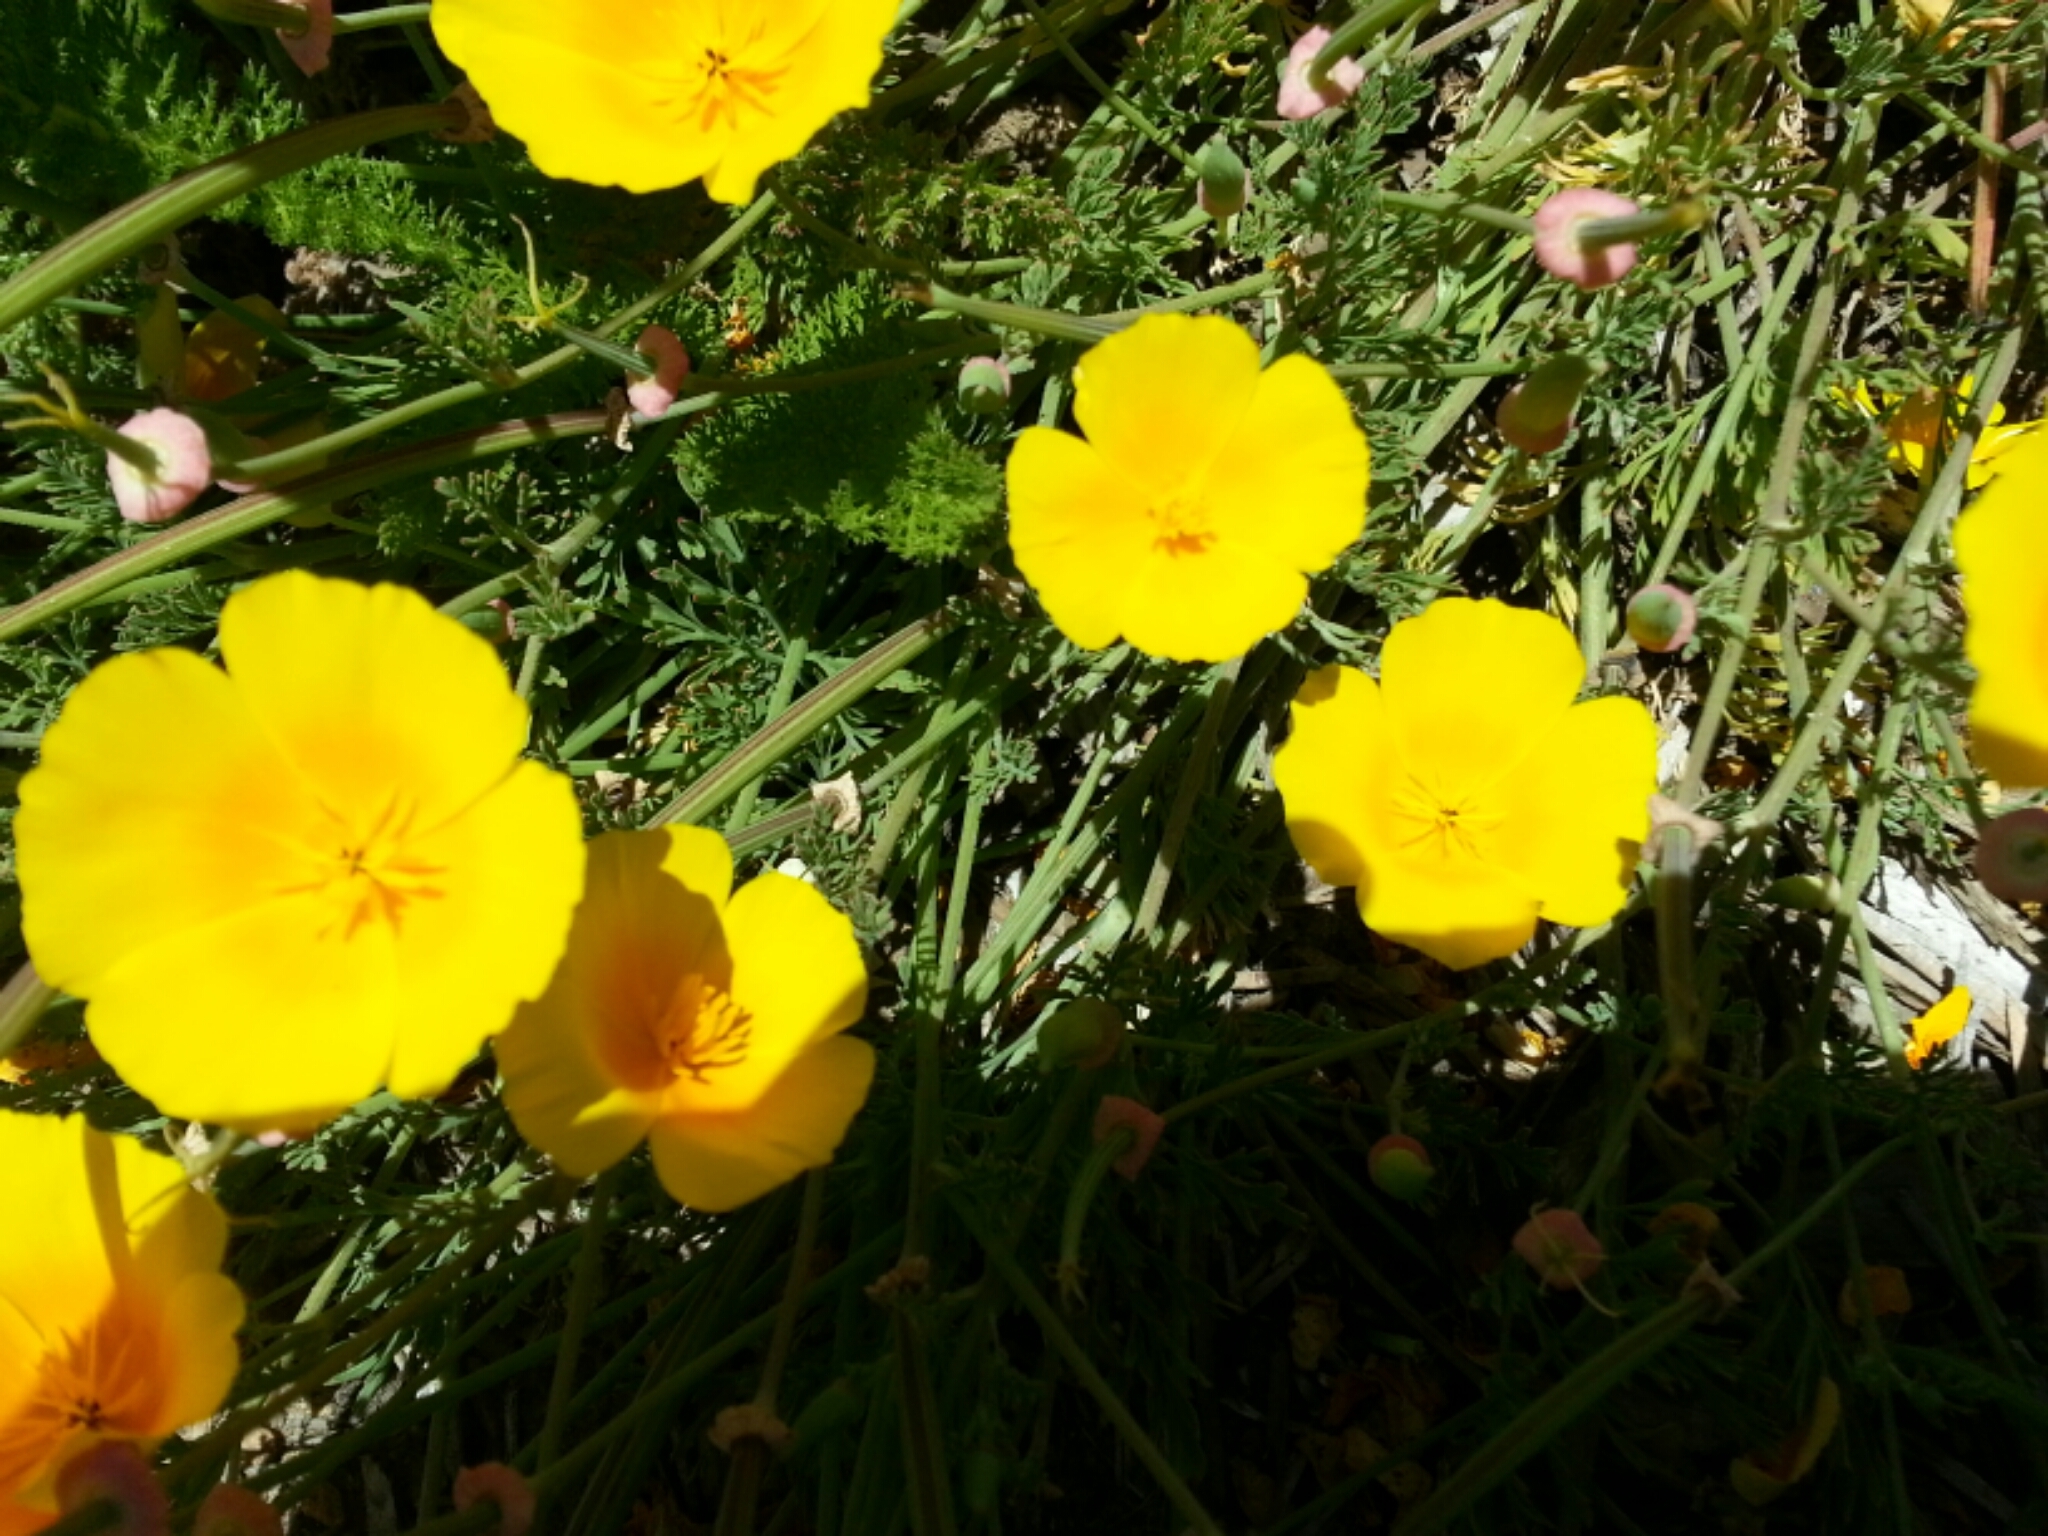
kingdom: Plantae
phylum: Tracheophyta
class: Magnoliopsida
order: Ranunculales
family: Papaveraceae
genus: Eschscholzia
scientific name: Eschscholzia californica
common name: California poppy
